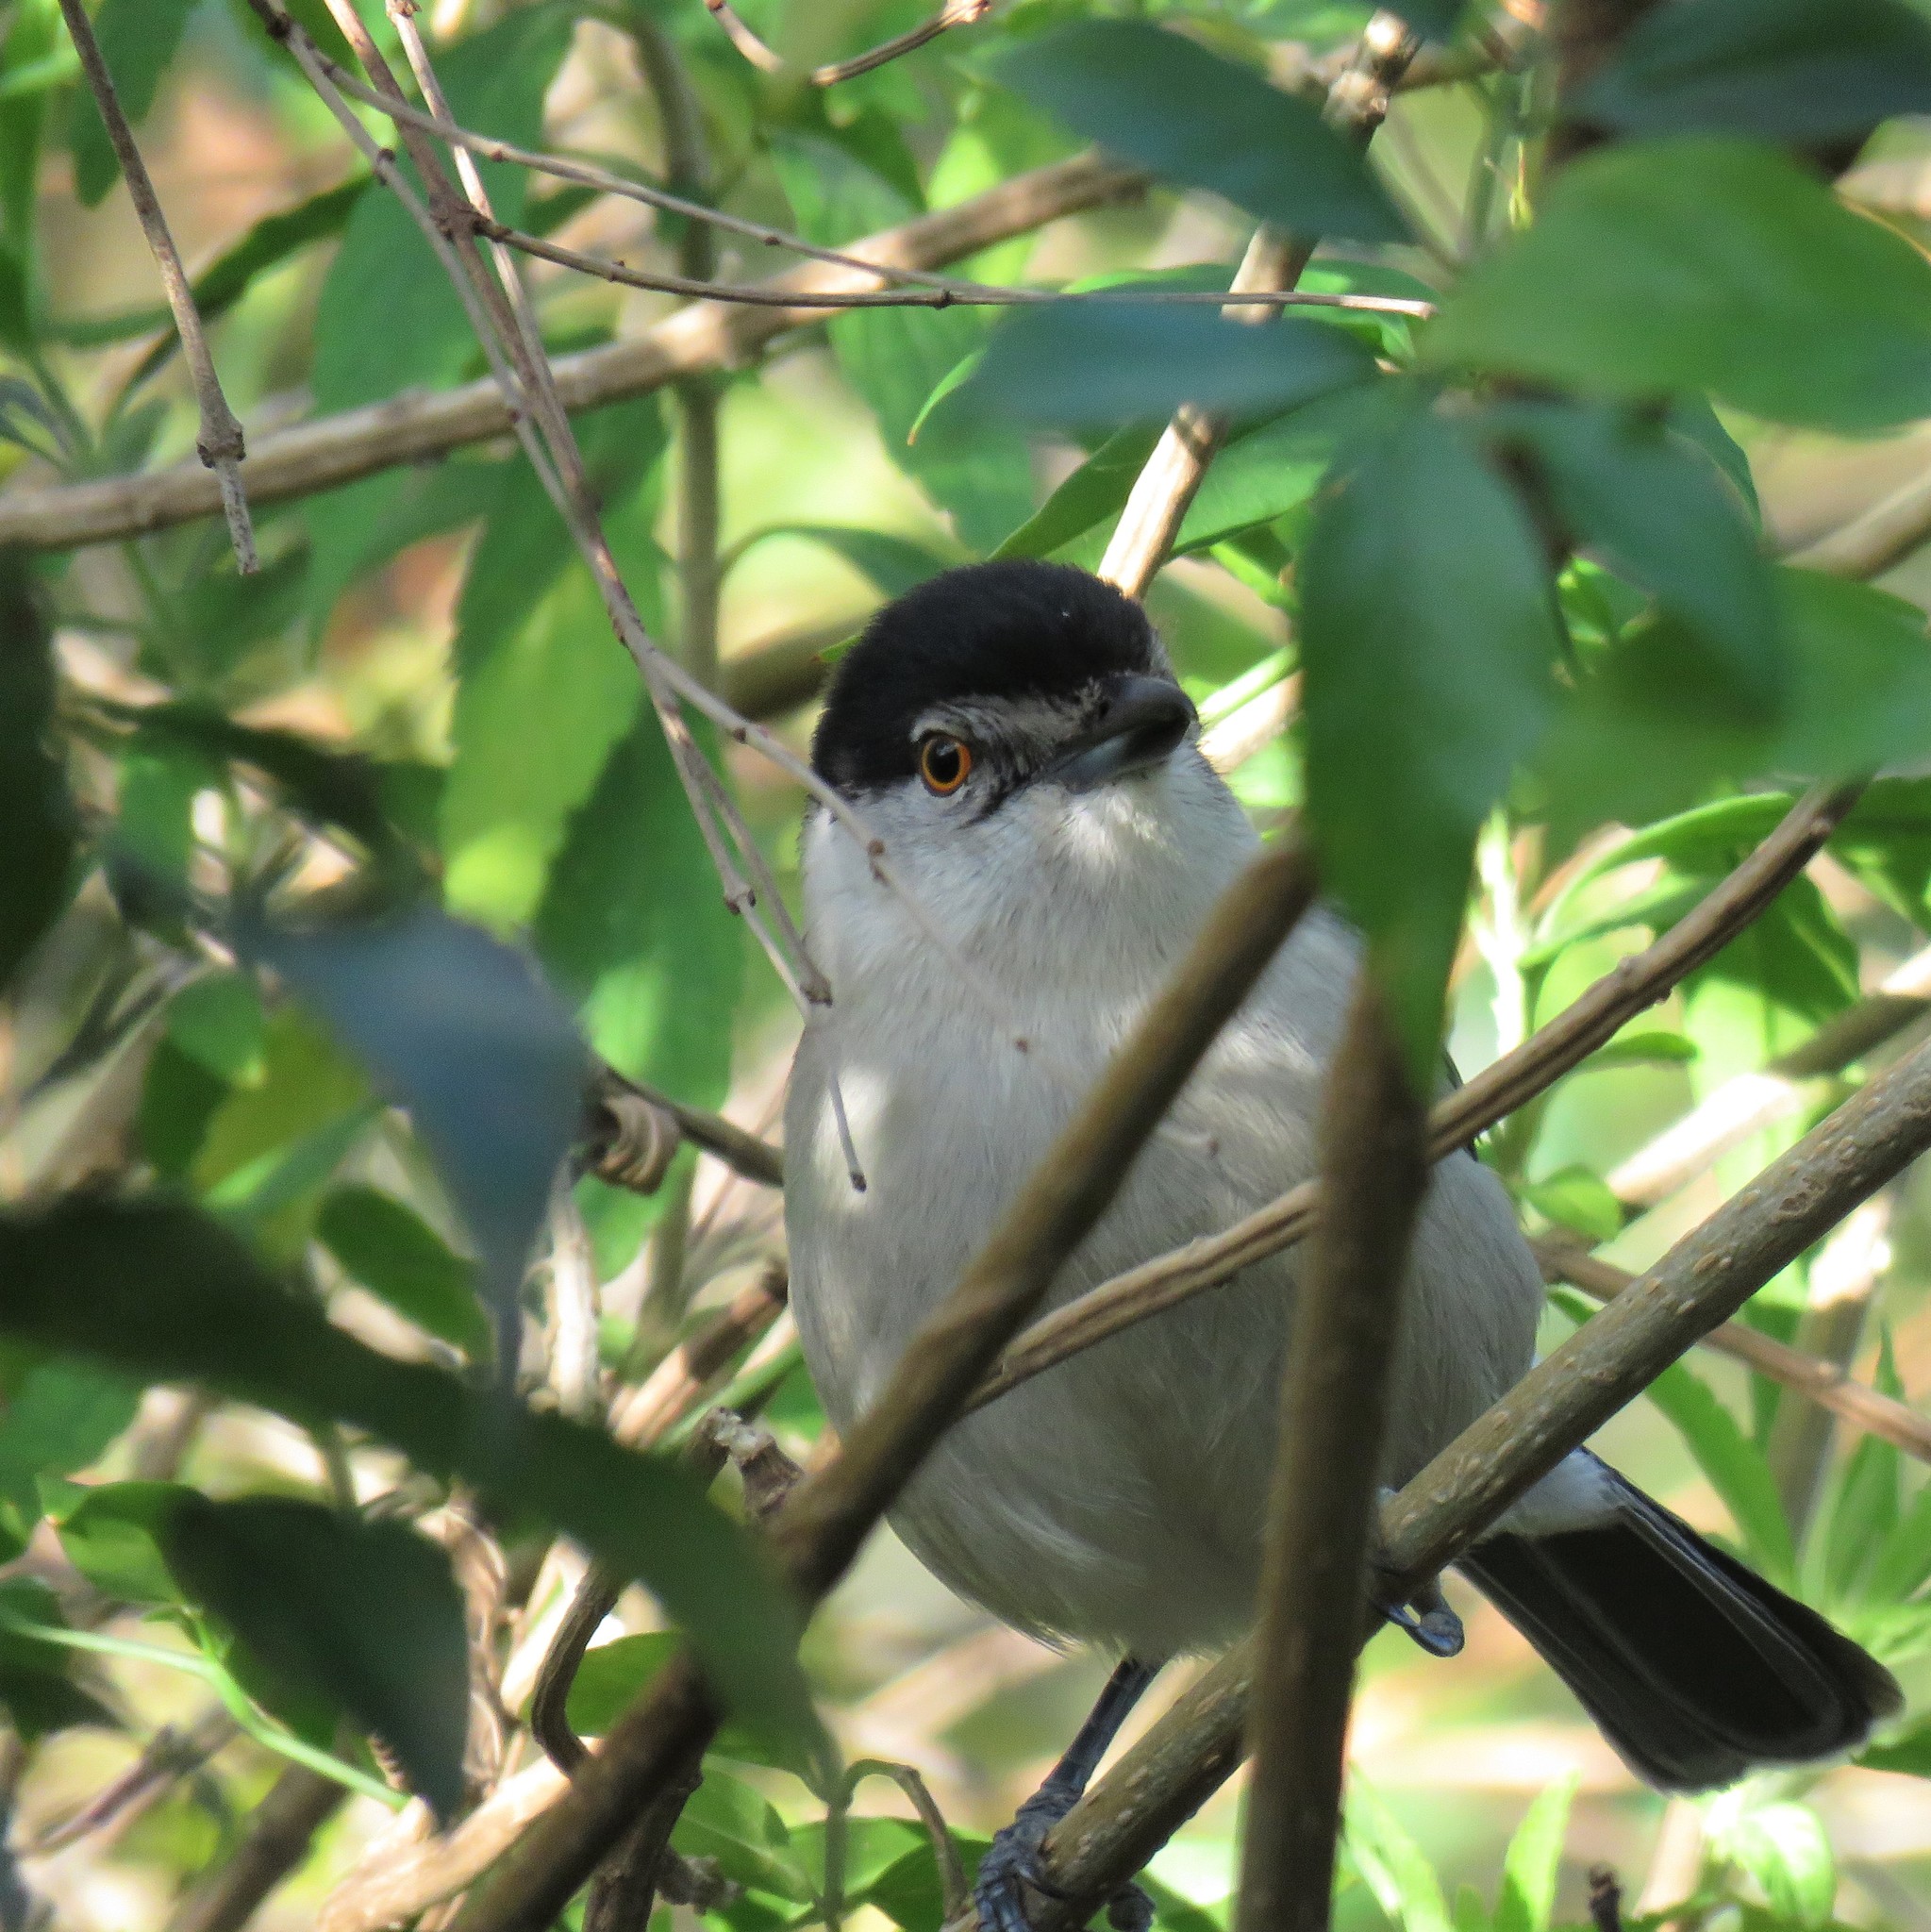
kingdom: Animalia
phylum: Chordata
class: Aves
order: Passeriformes
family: Malaconotidae
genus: Dryoscopus
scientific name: Dryoscopus cubla
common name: Black-backed puffback
